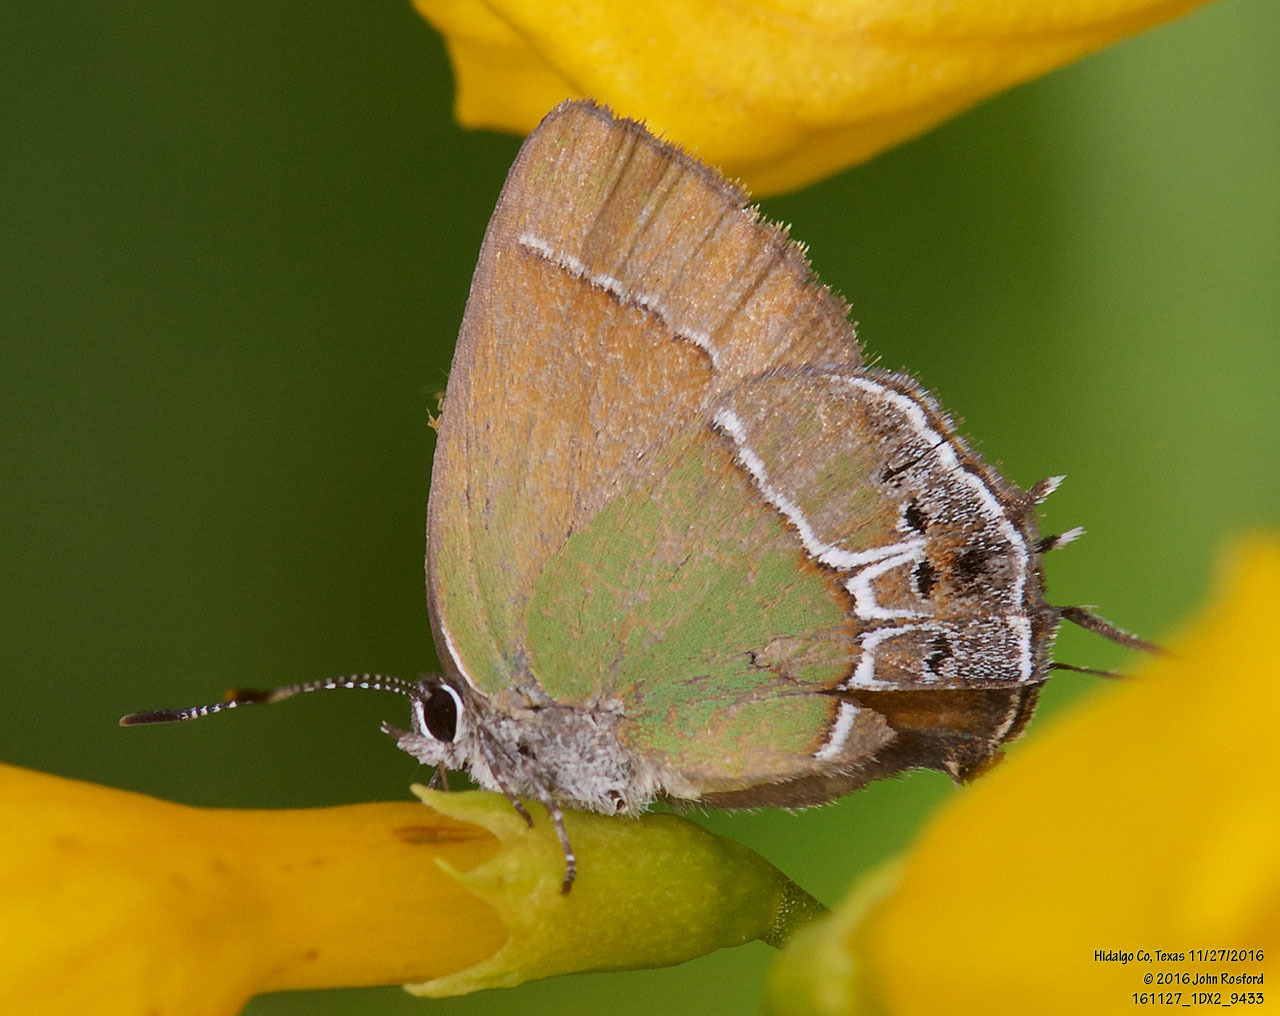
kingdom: Animalia
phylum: Arthropoda
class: Insecta
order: Lepidoptera
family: Lycaenidae
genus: Xamia
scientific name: Xamia xami
